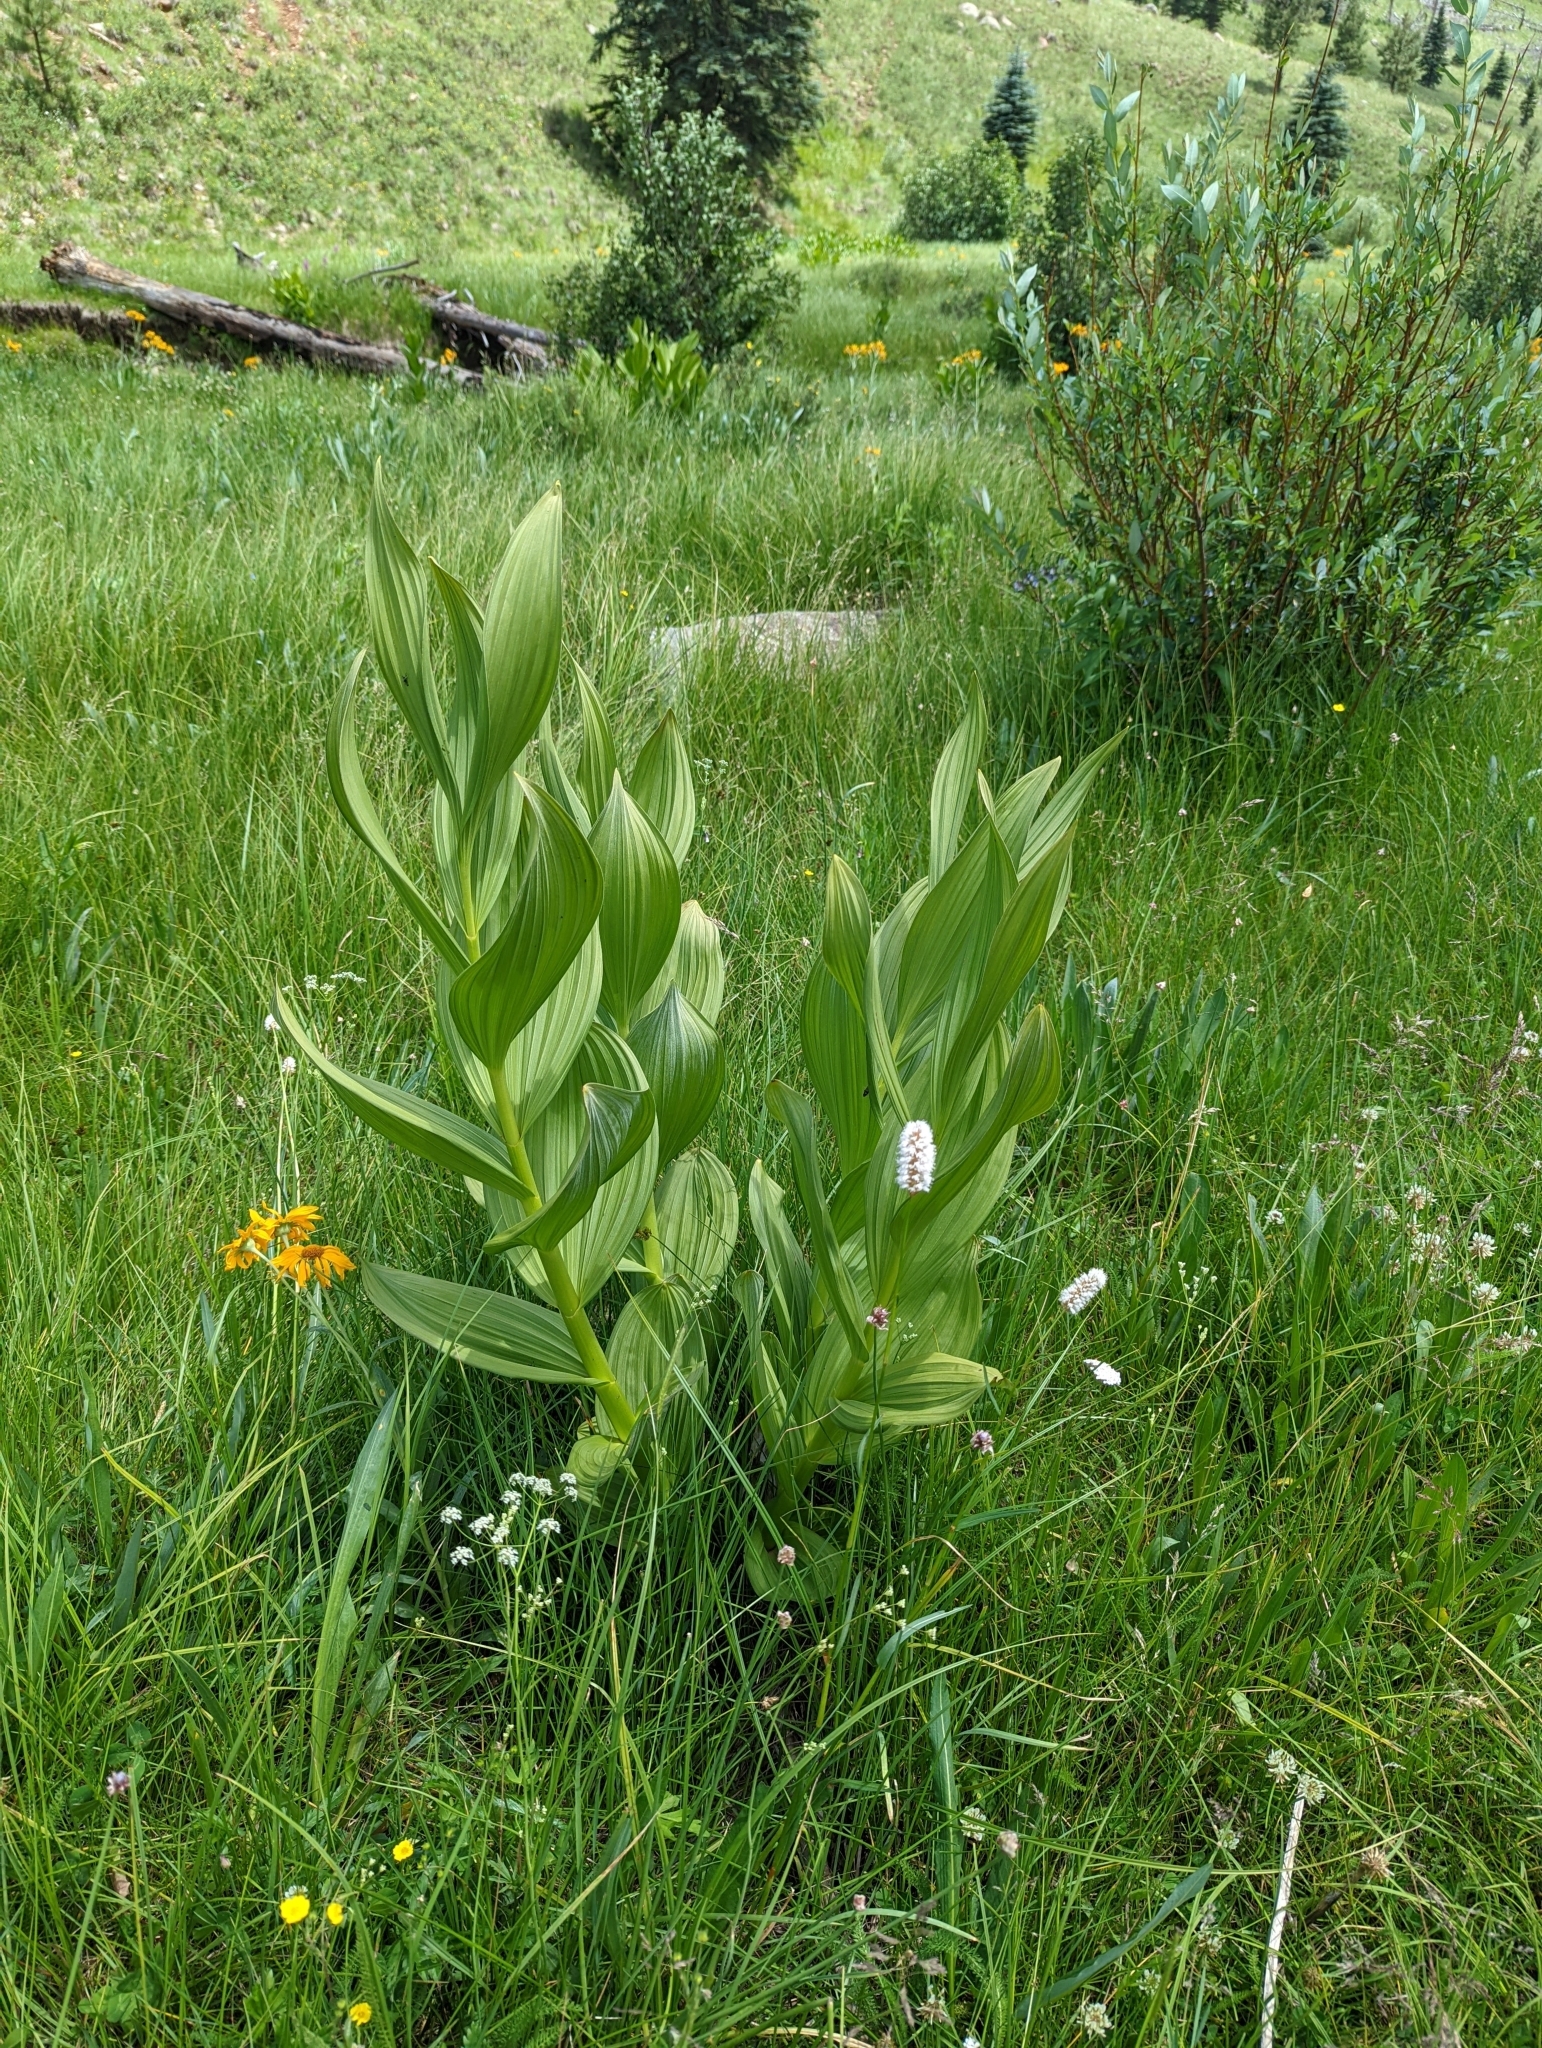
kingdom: Plantae
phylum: Tracheophyta
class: Liliopsida
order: Liliales
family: Melanthiaceae
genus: Veratrum
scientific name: Veratrum californicum
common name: California veratrum
